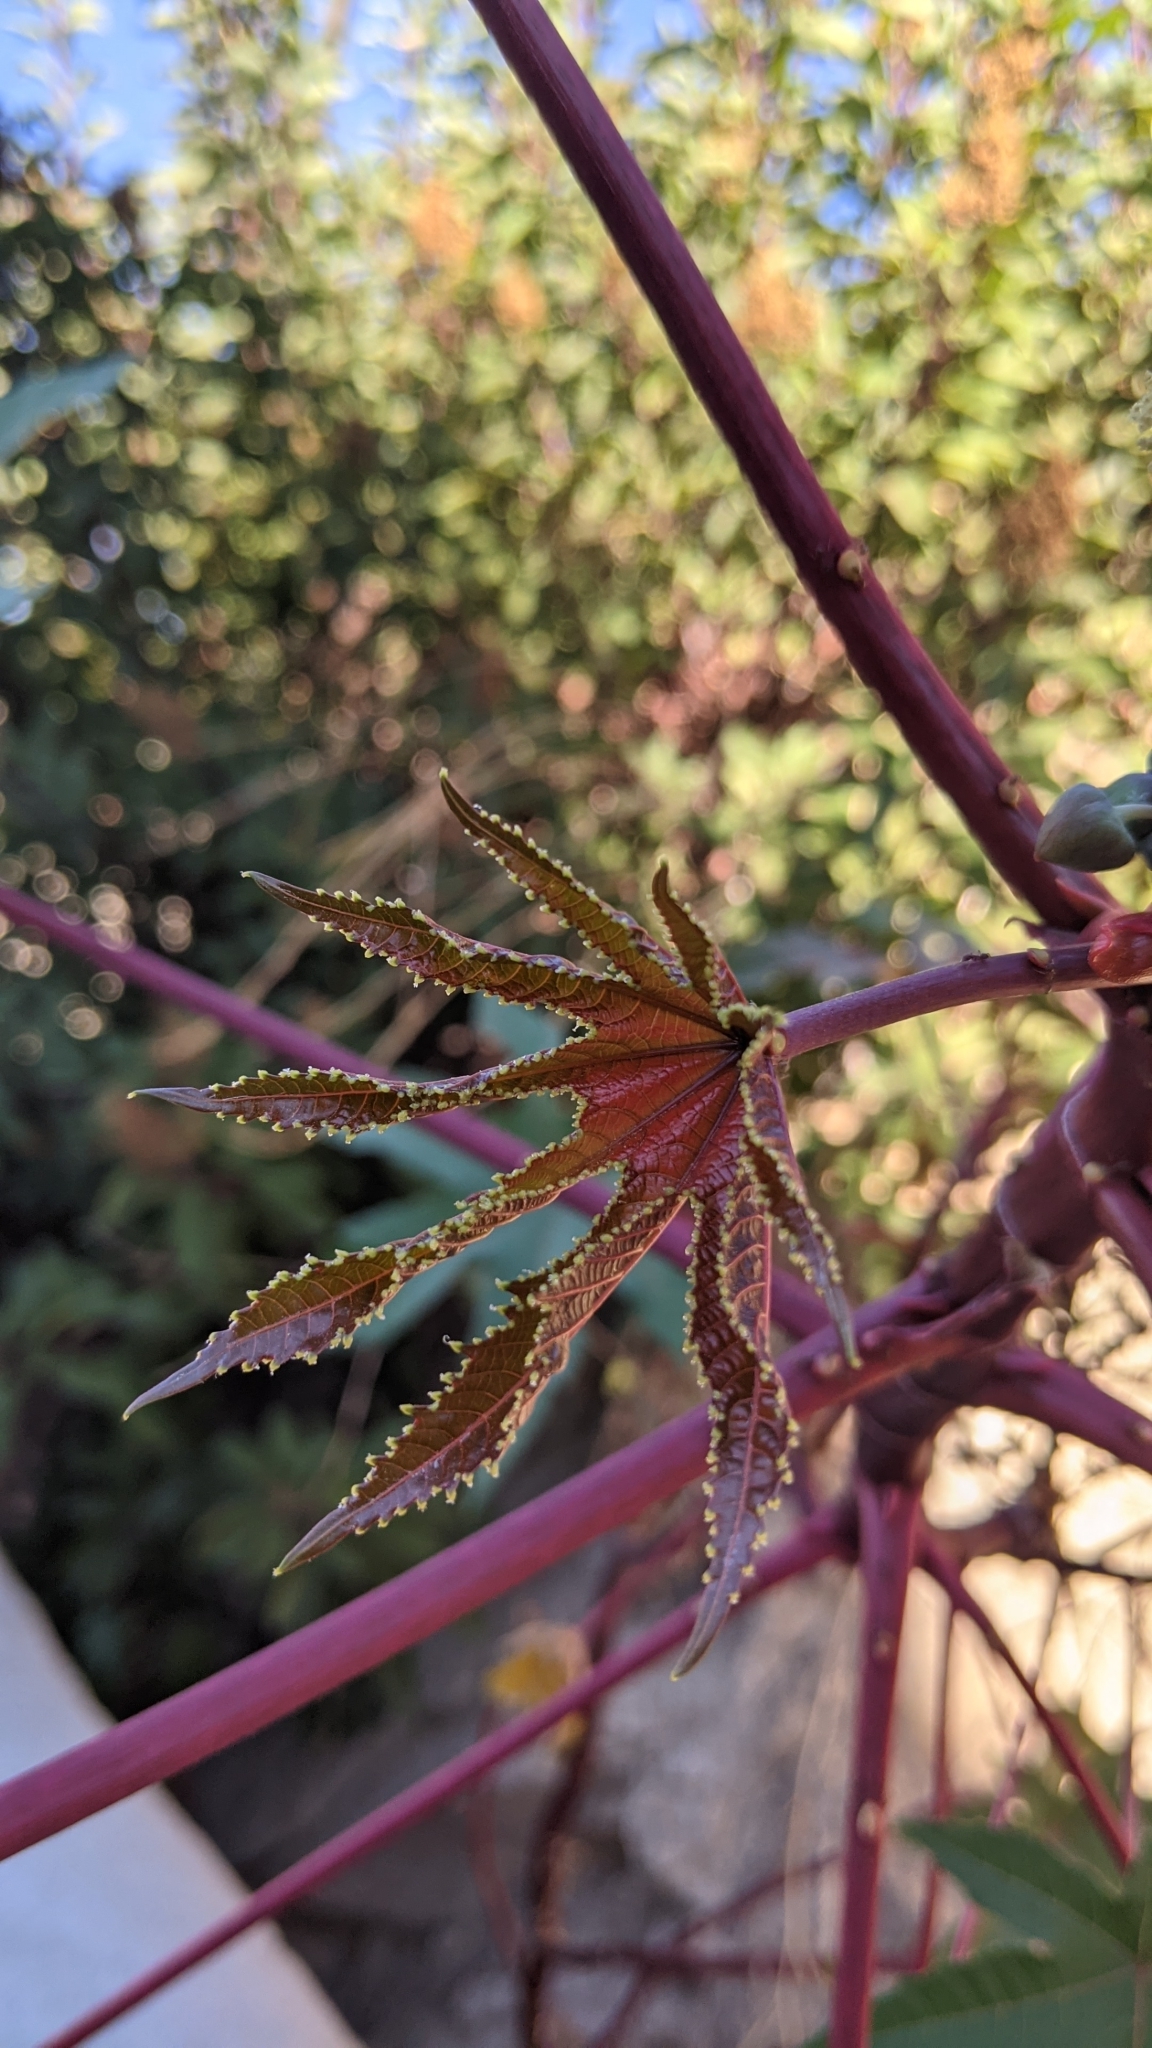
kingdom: Plantae
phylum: Tracheophyta
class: Magnoliopsida
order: Malpighiales
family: Euphorbiaceae
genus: Ricinus
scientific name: Ricinus communis
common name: Castor-oil-plant
